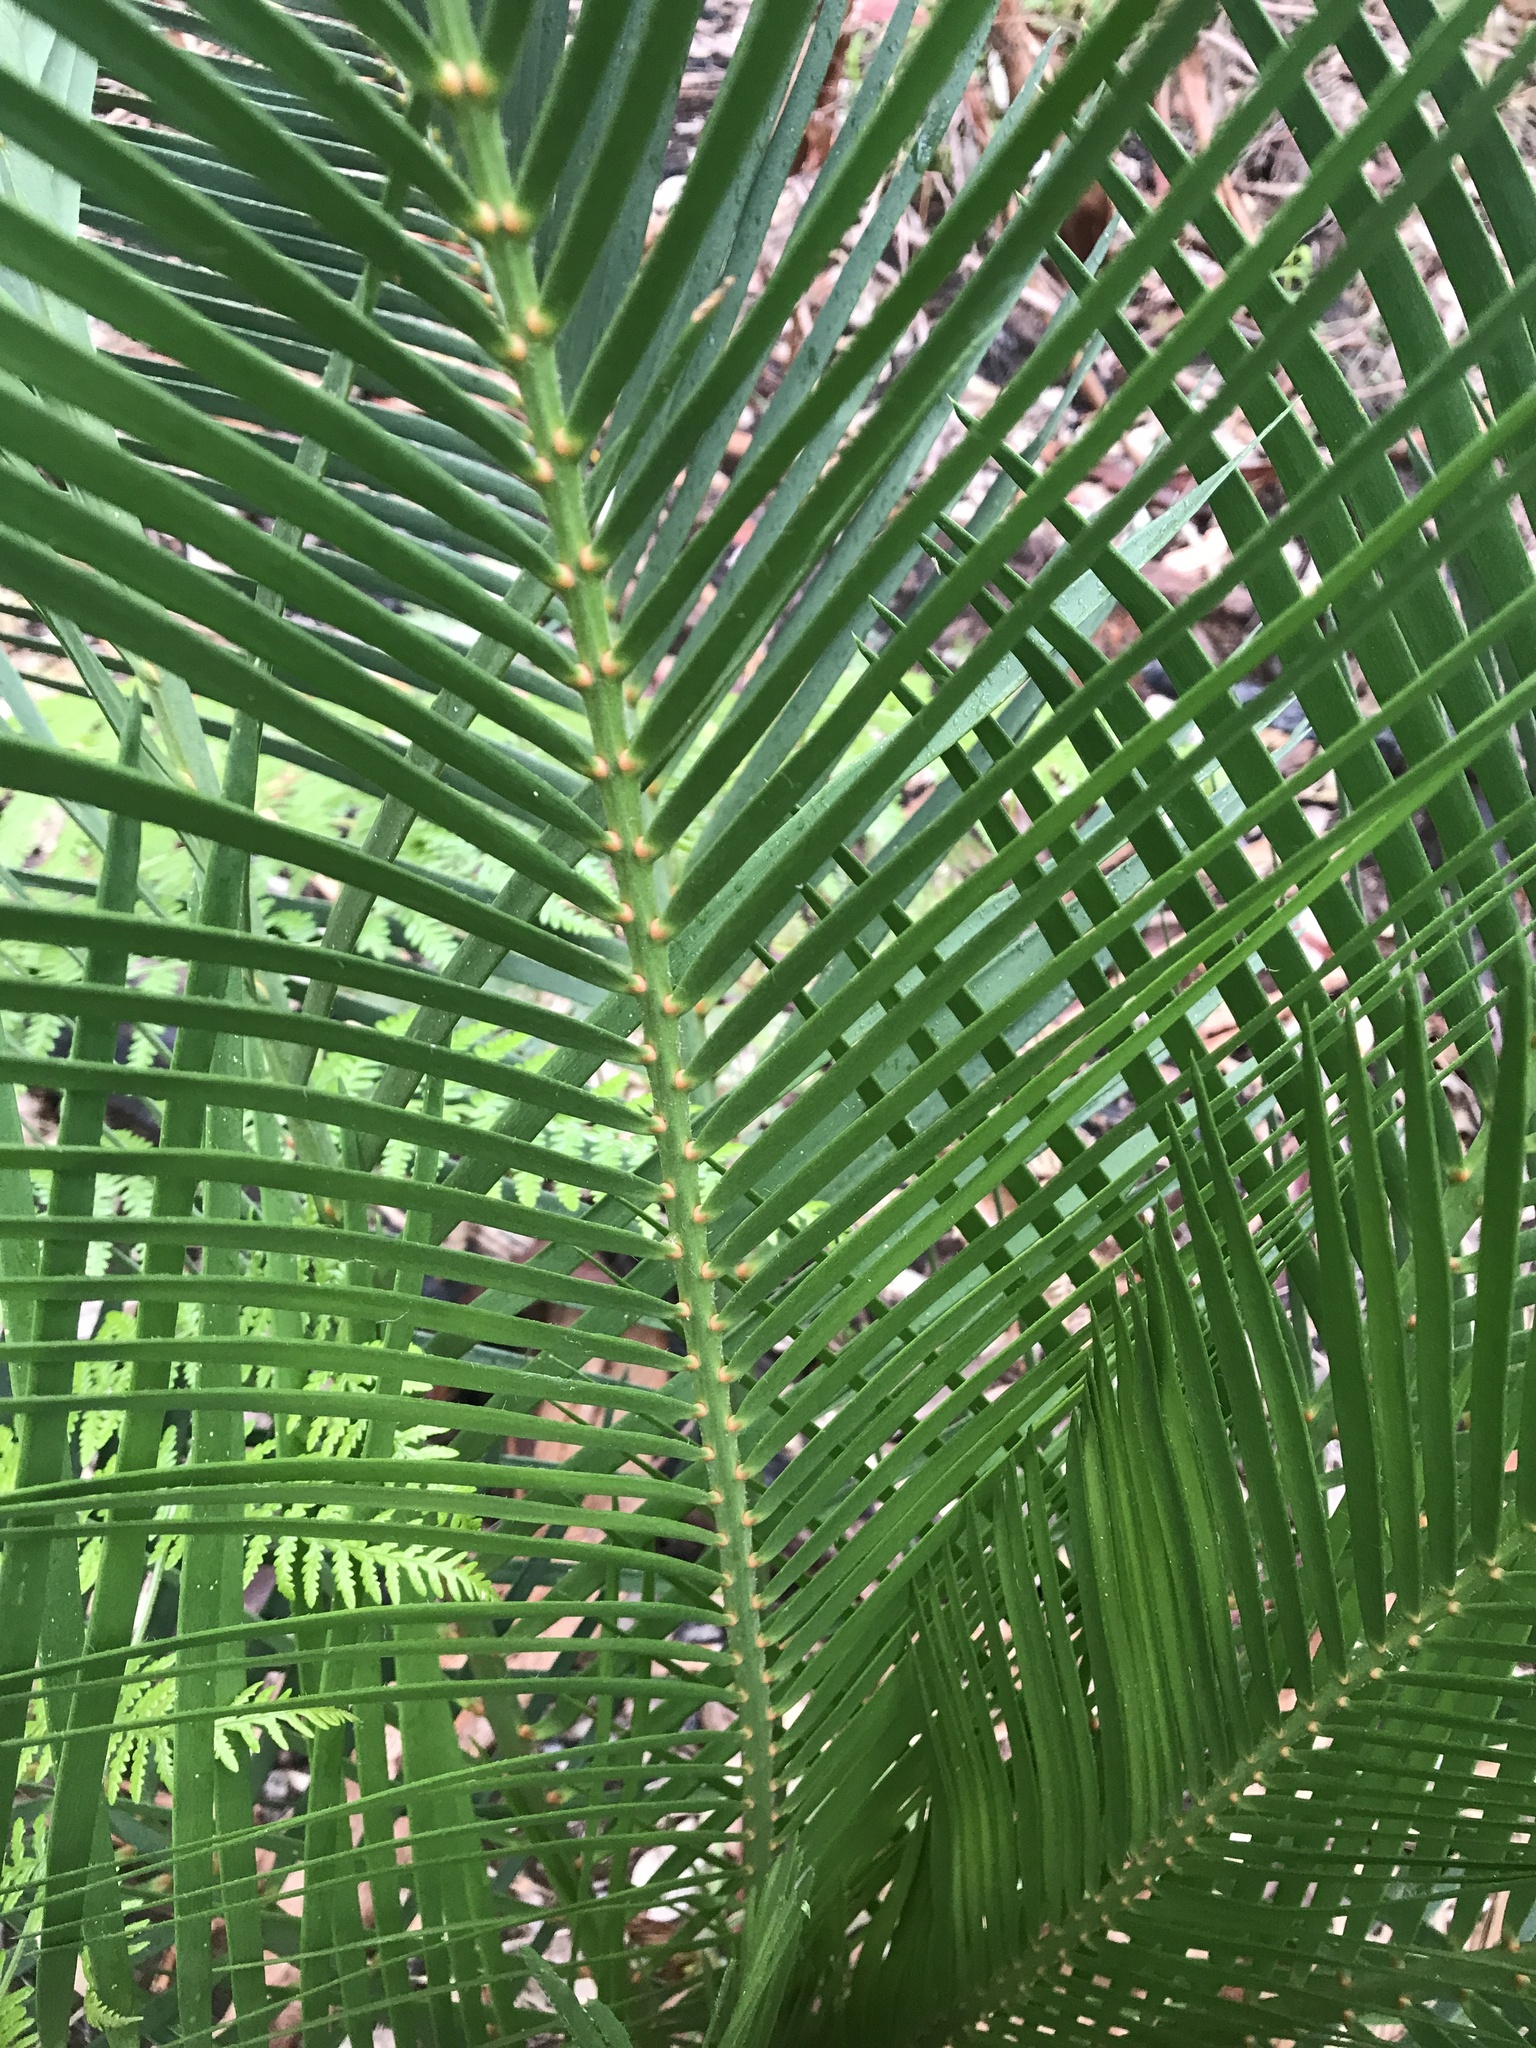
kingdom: Plantae
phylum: Tracheophyta
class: Cycadopsida
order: Cycadales
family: Zamiaceae
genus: Macrozamia
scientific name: Macrozamia riedlei
